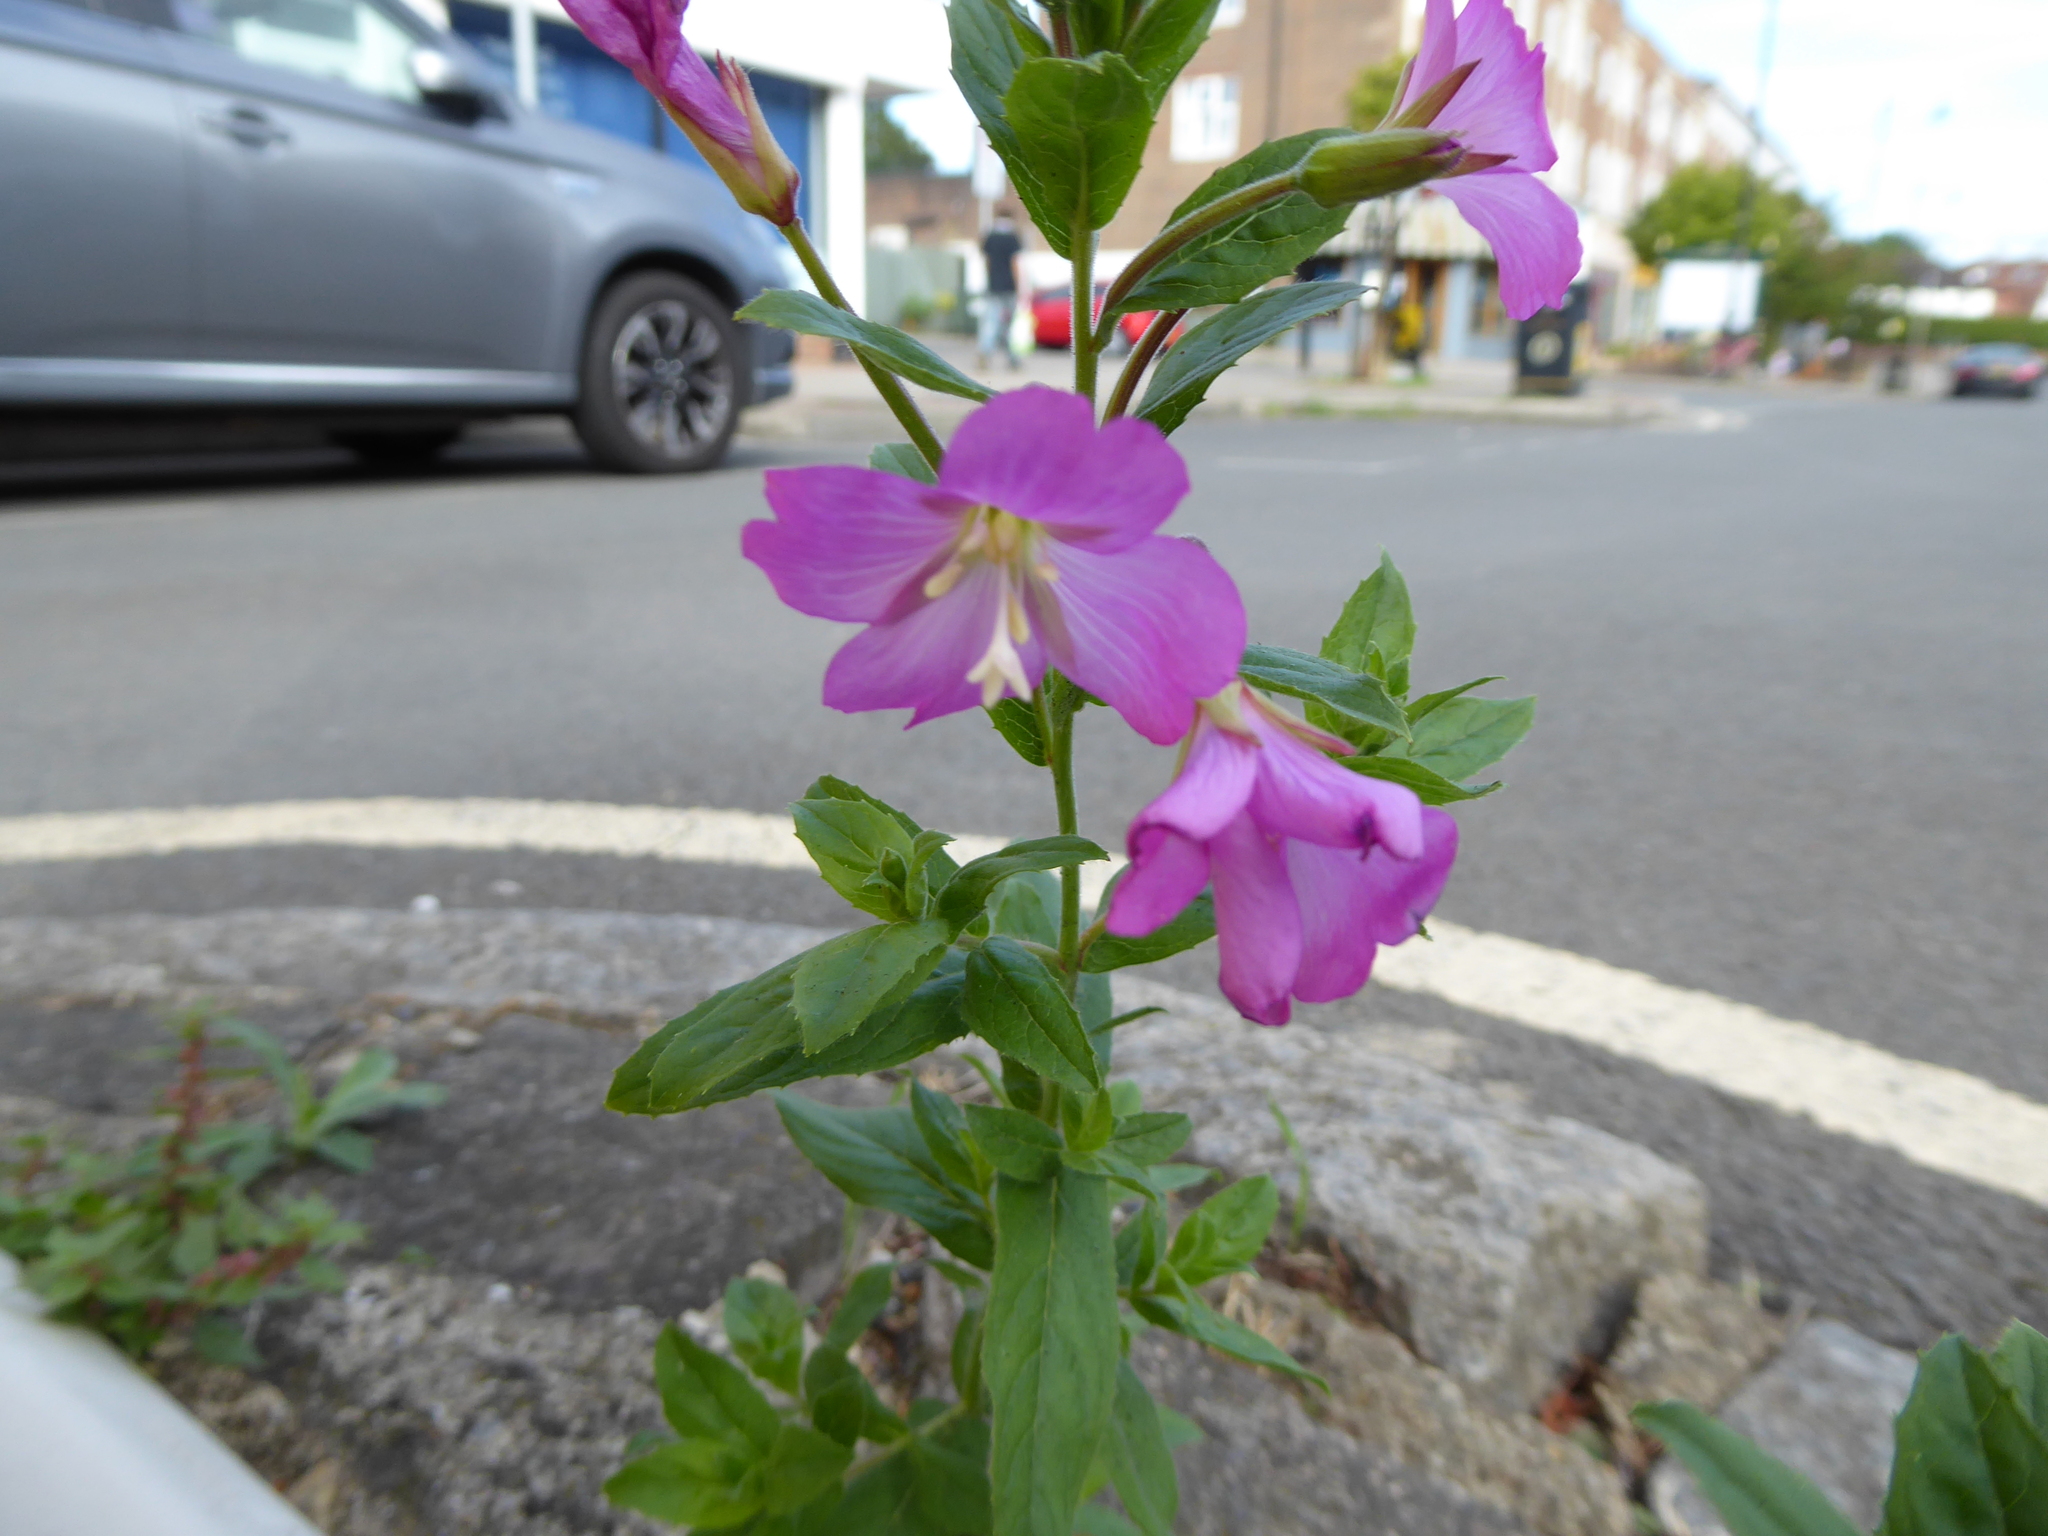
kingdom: Plantae
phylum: Tracheophyta
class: Magnoliopsida
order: Myrtales
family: Onagraceae
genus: Epilobium
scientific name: Epilobium hirsutum
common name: Great willowherb
